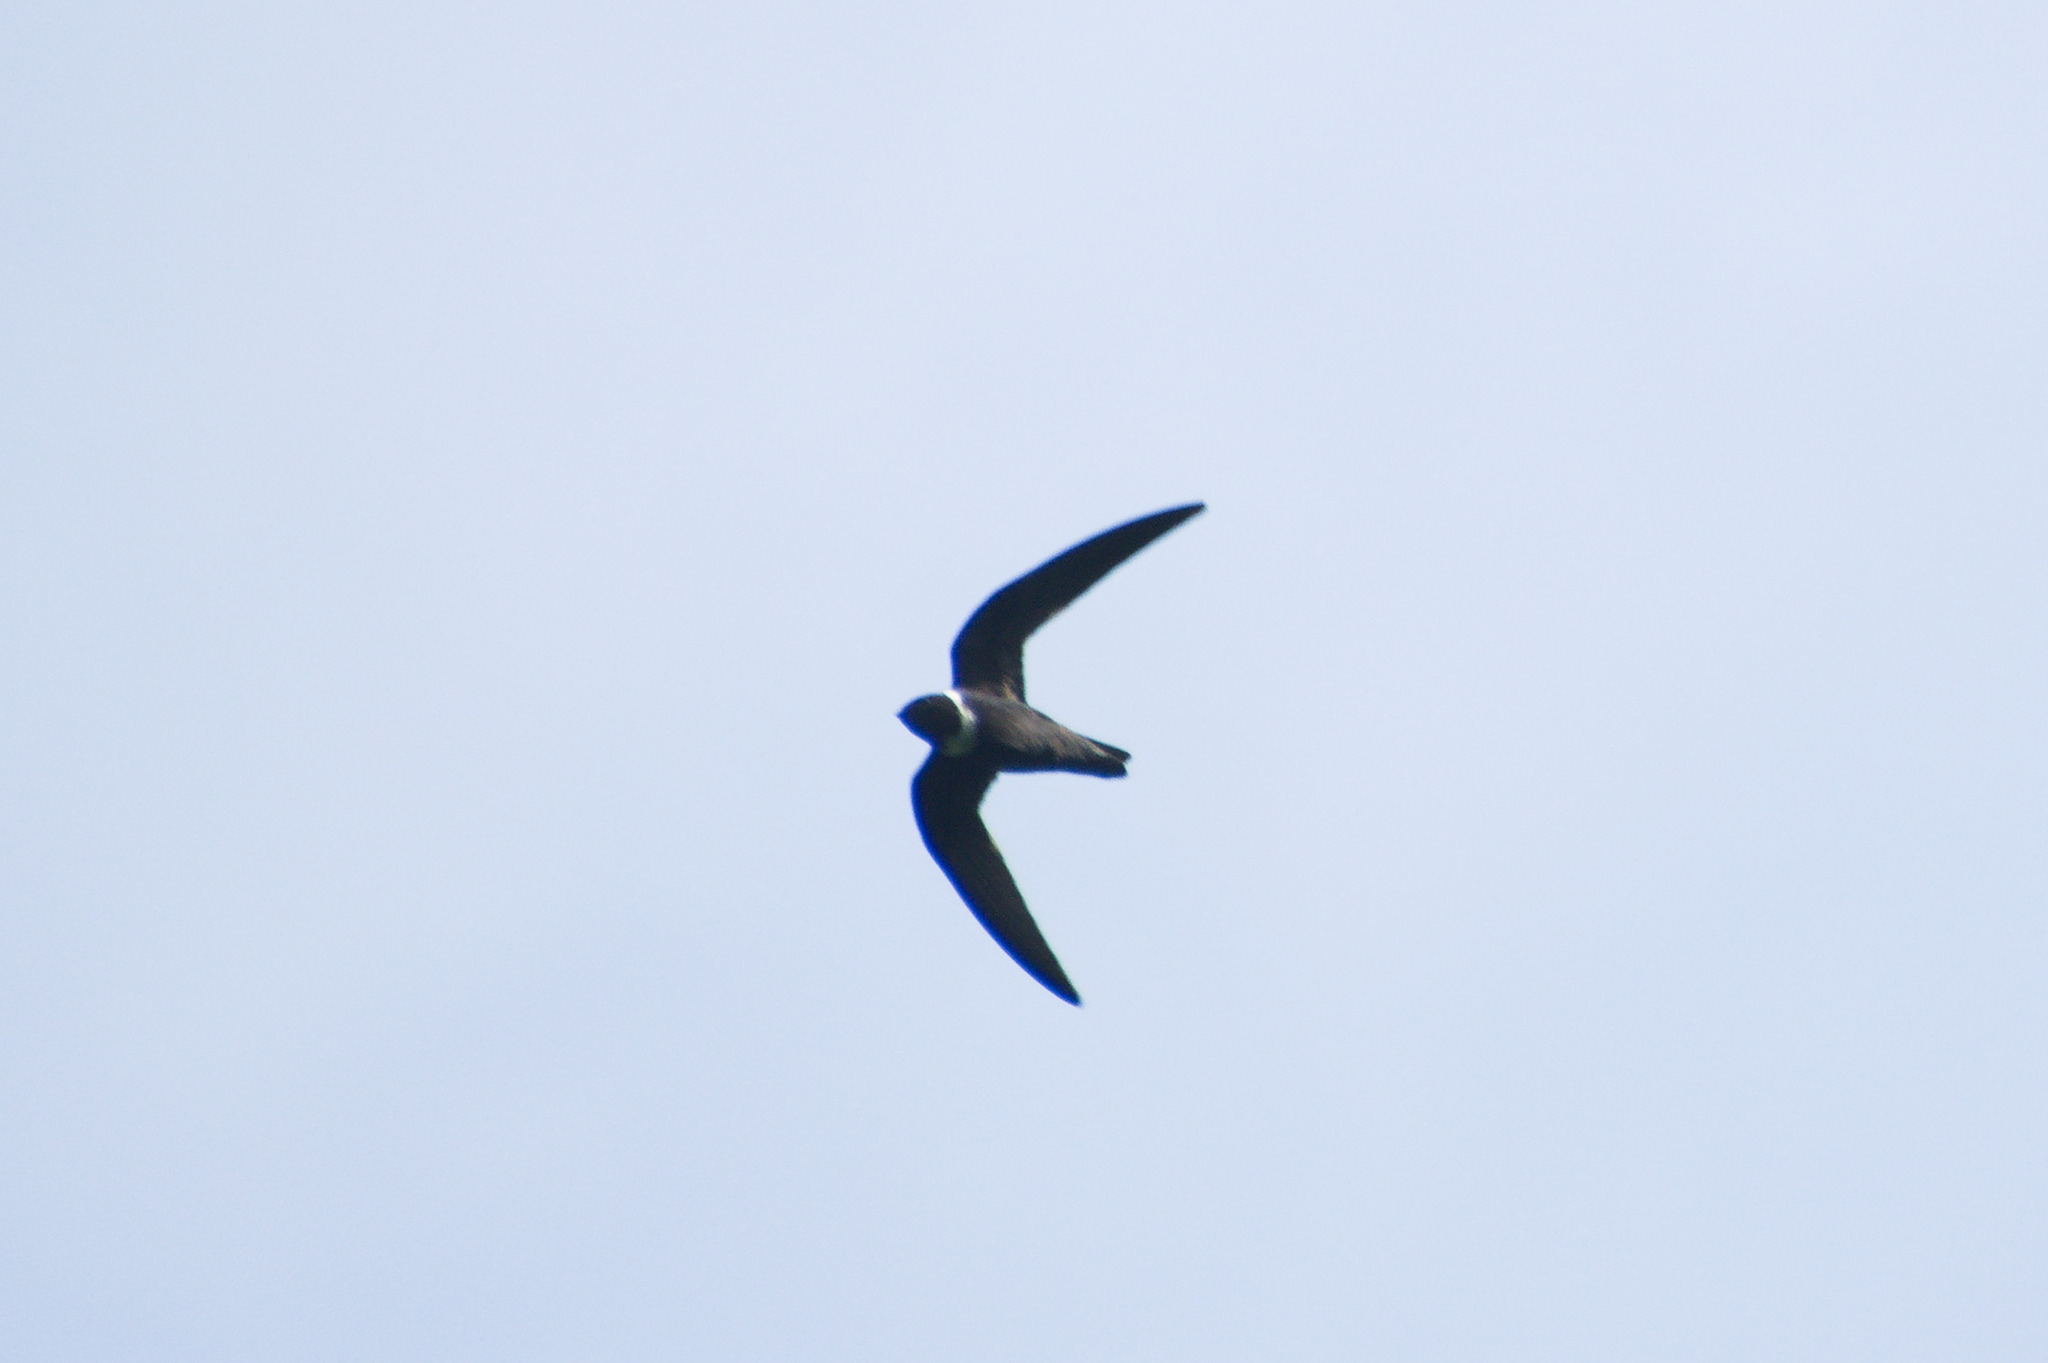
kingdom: Animalia
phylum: Chordata
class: Aves
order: Apodiformes
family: Apodidae
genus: Streptoprocne
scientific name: Streptoprocne zonaris
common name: White-collared swift
